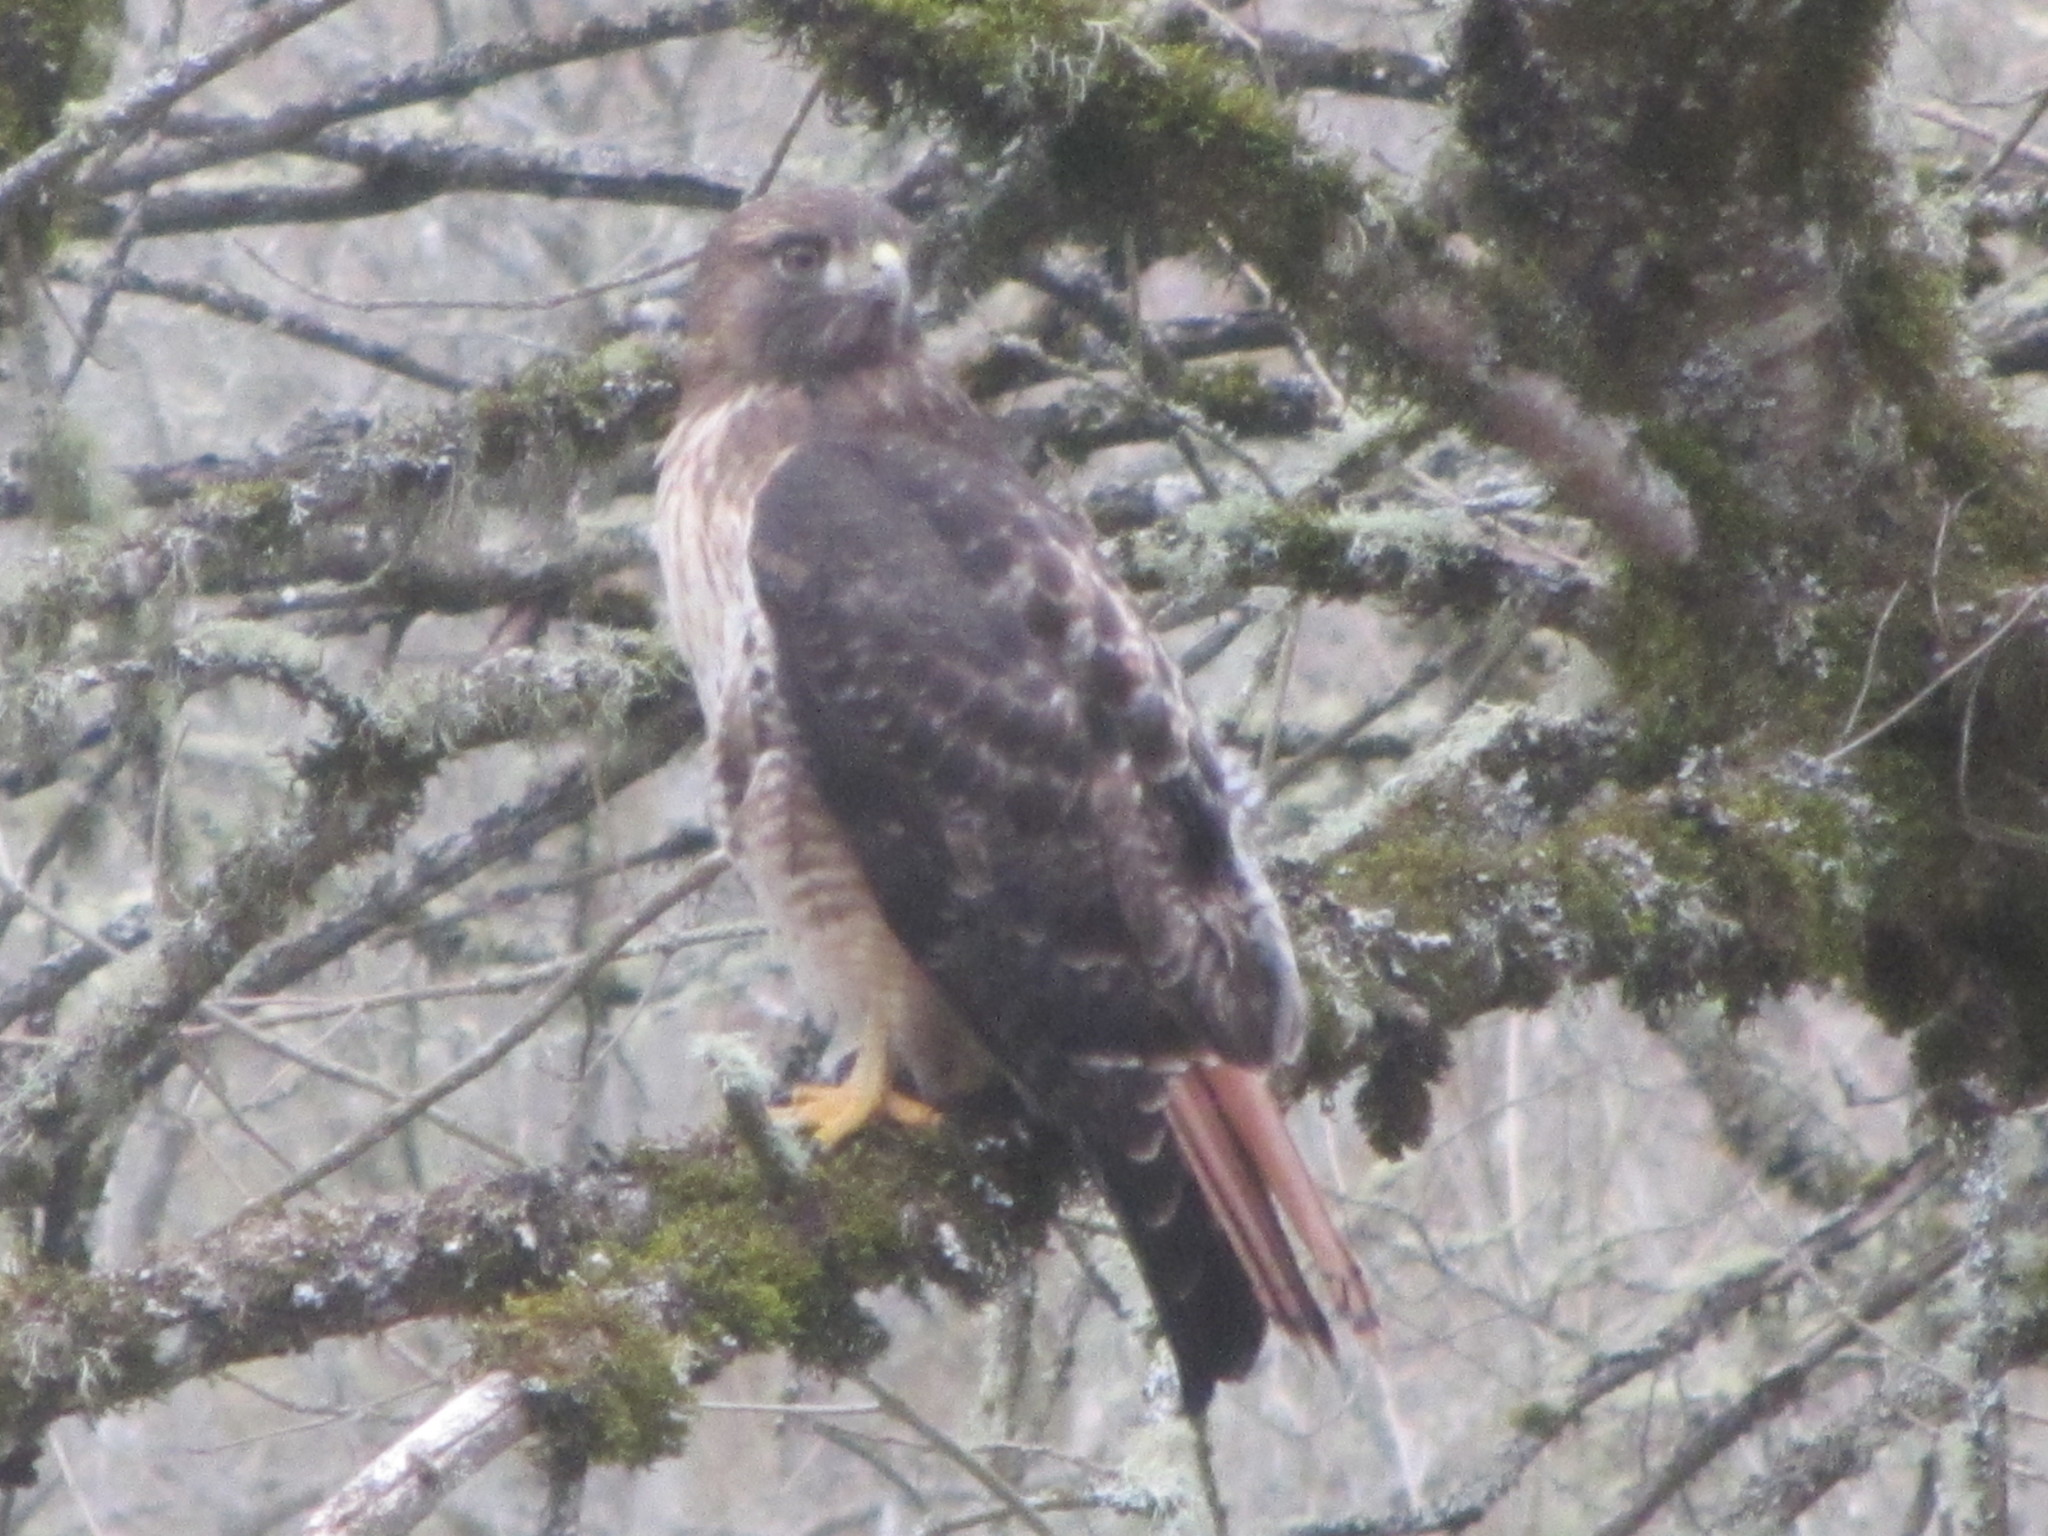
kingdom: Animalia
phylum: Chordata
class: Aves
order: Accipitriformes
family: Accipitridae
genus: Buteo
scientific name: Buteo jamaicensis
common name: Red-tailed hawk
